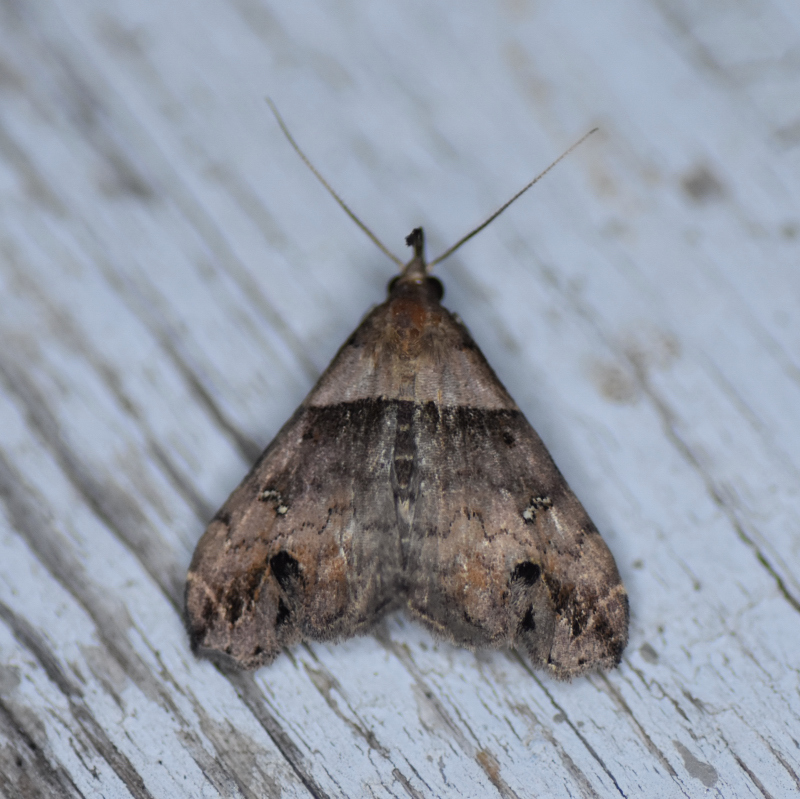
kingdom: Animalia
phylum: Arthropoda
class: Insecta
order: Lepidoptera
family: Erebidae
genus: Lascoria
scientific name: Lascoria ambigualis
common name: Ambiguous moth
